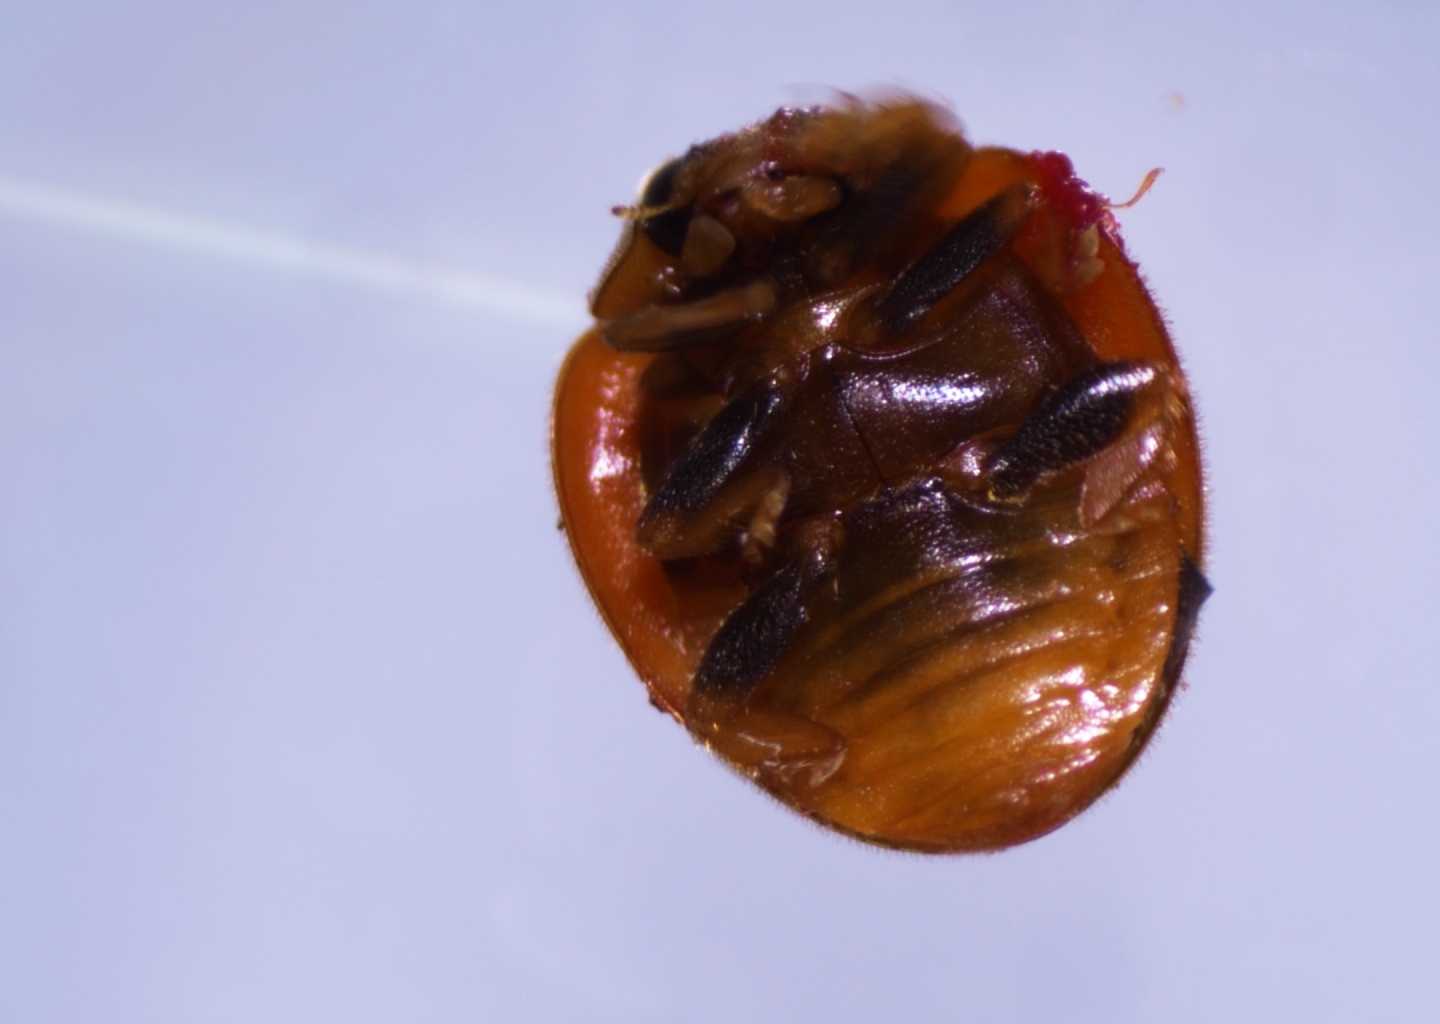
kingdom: Animalia
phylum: Arthropoda
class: Insecta
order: Coleoptera
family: Coccinellidae
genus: Novius
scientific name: Novius pumilus
